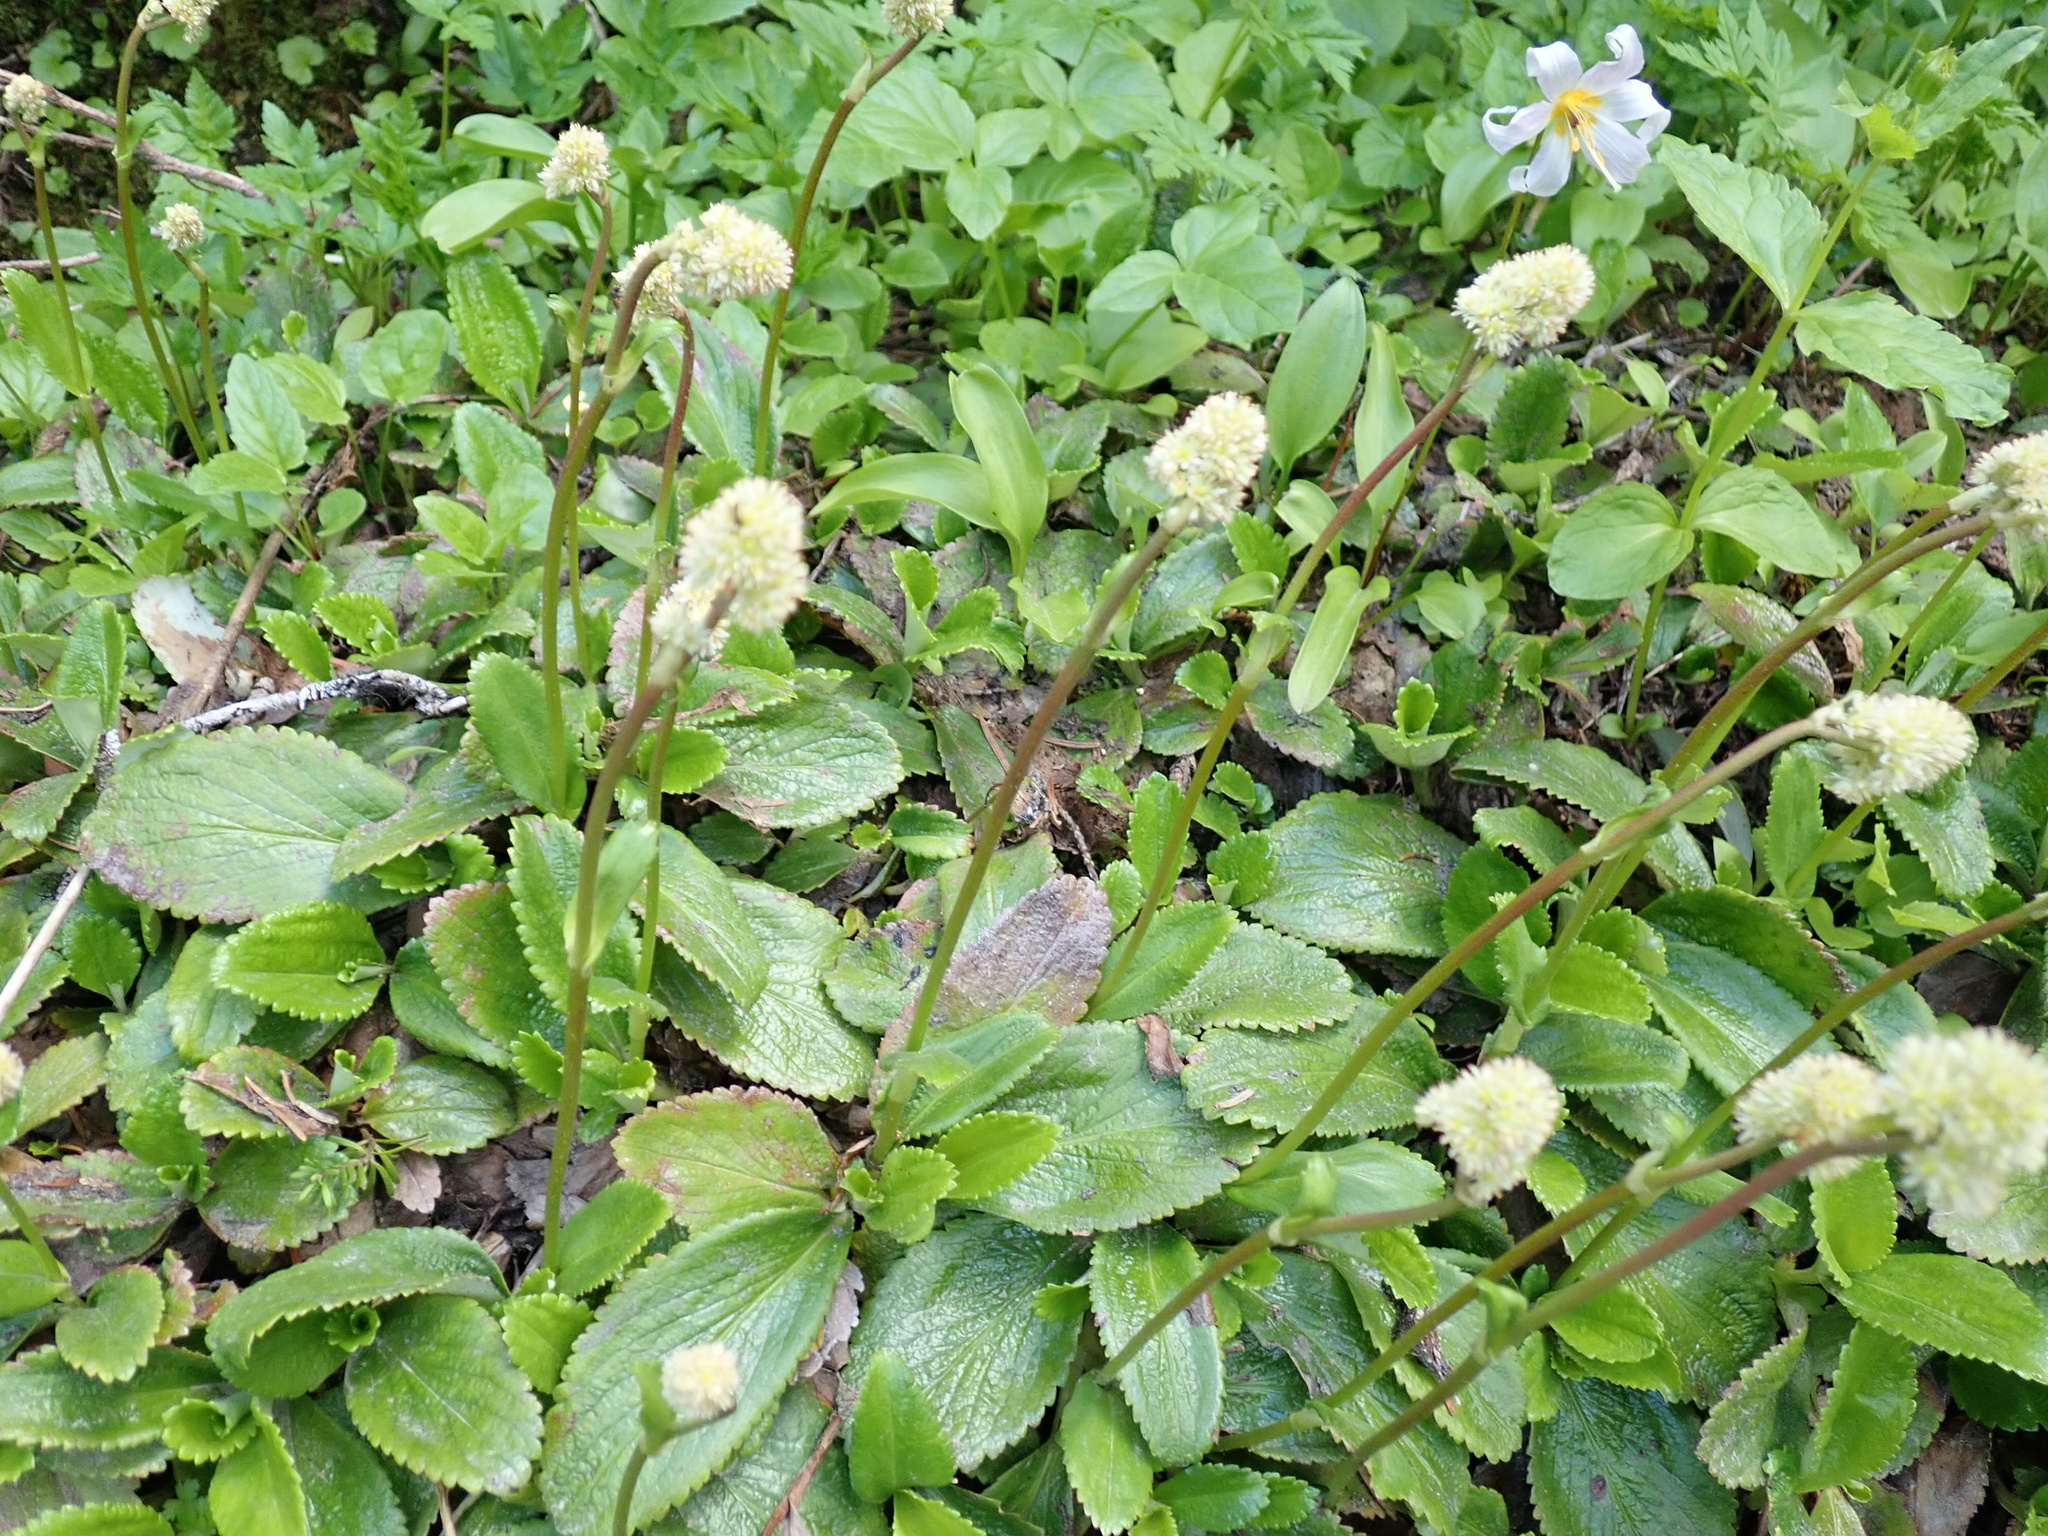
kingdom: Plantae
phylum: Tracheophyta
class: Magnoliopsida
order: Saxifragales
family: Saxifragaceae
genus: Leptarrhena
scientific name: Leptarrhena pyrolifolia
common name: Leatherleaf-saxifrage
